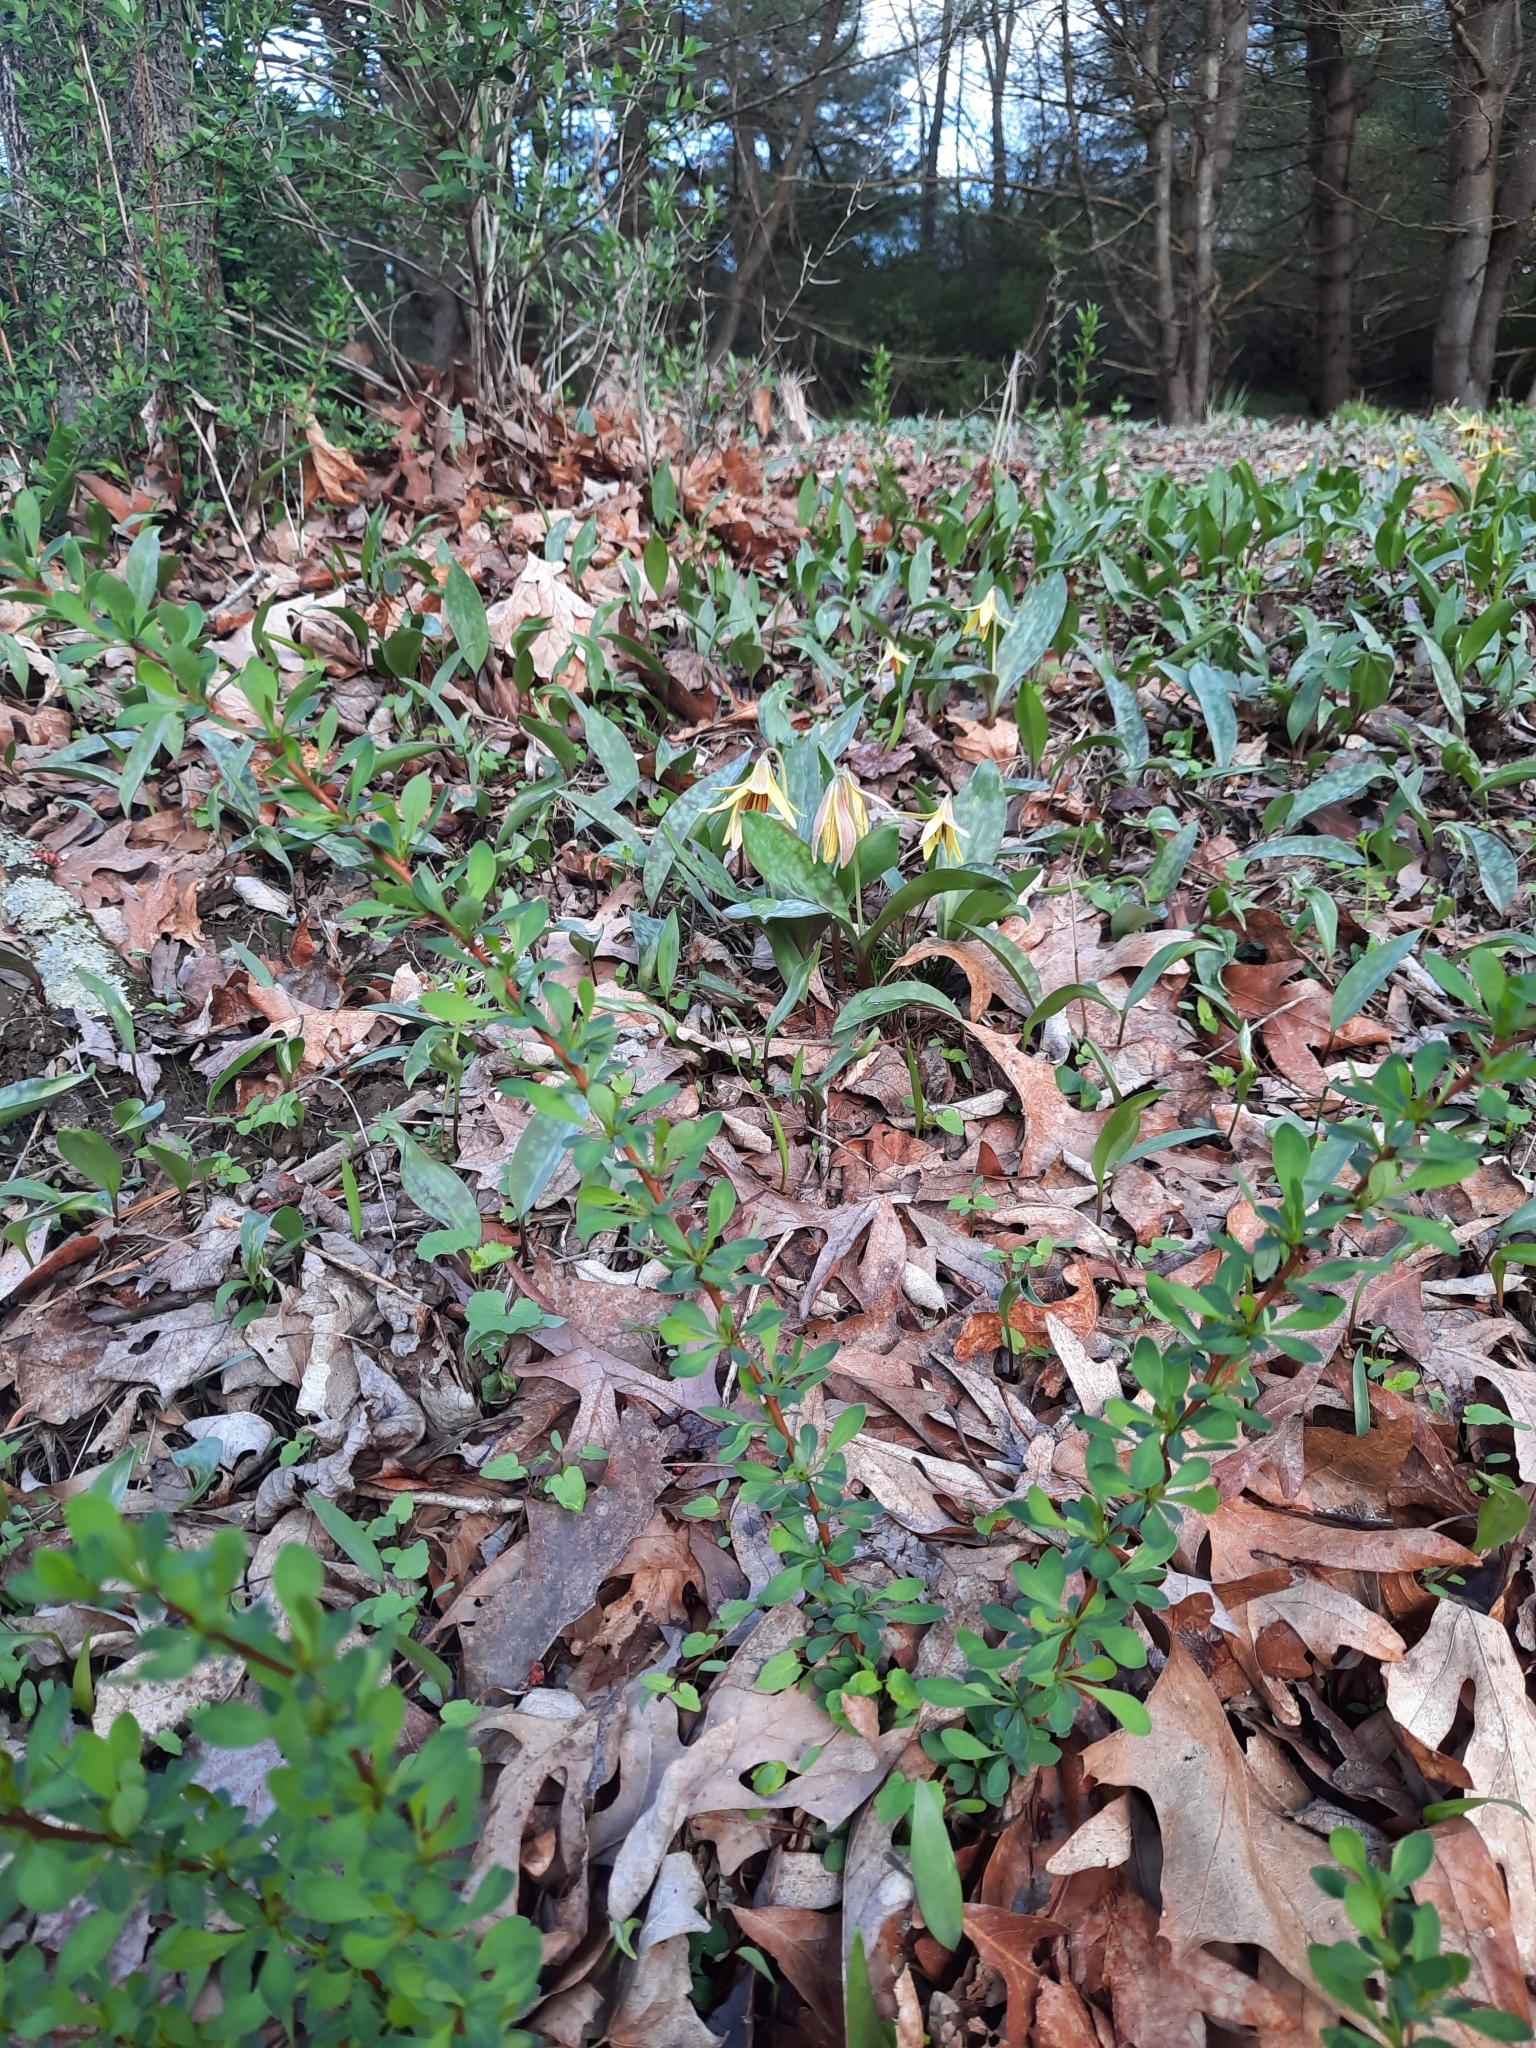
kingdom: Plantae
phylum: Tracheophyta
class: Magnoliopsida
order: Ranunculales
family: Berberidaceae
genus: Berberis
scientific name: Berberis thunbergii
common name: Japanese barberry
